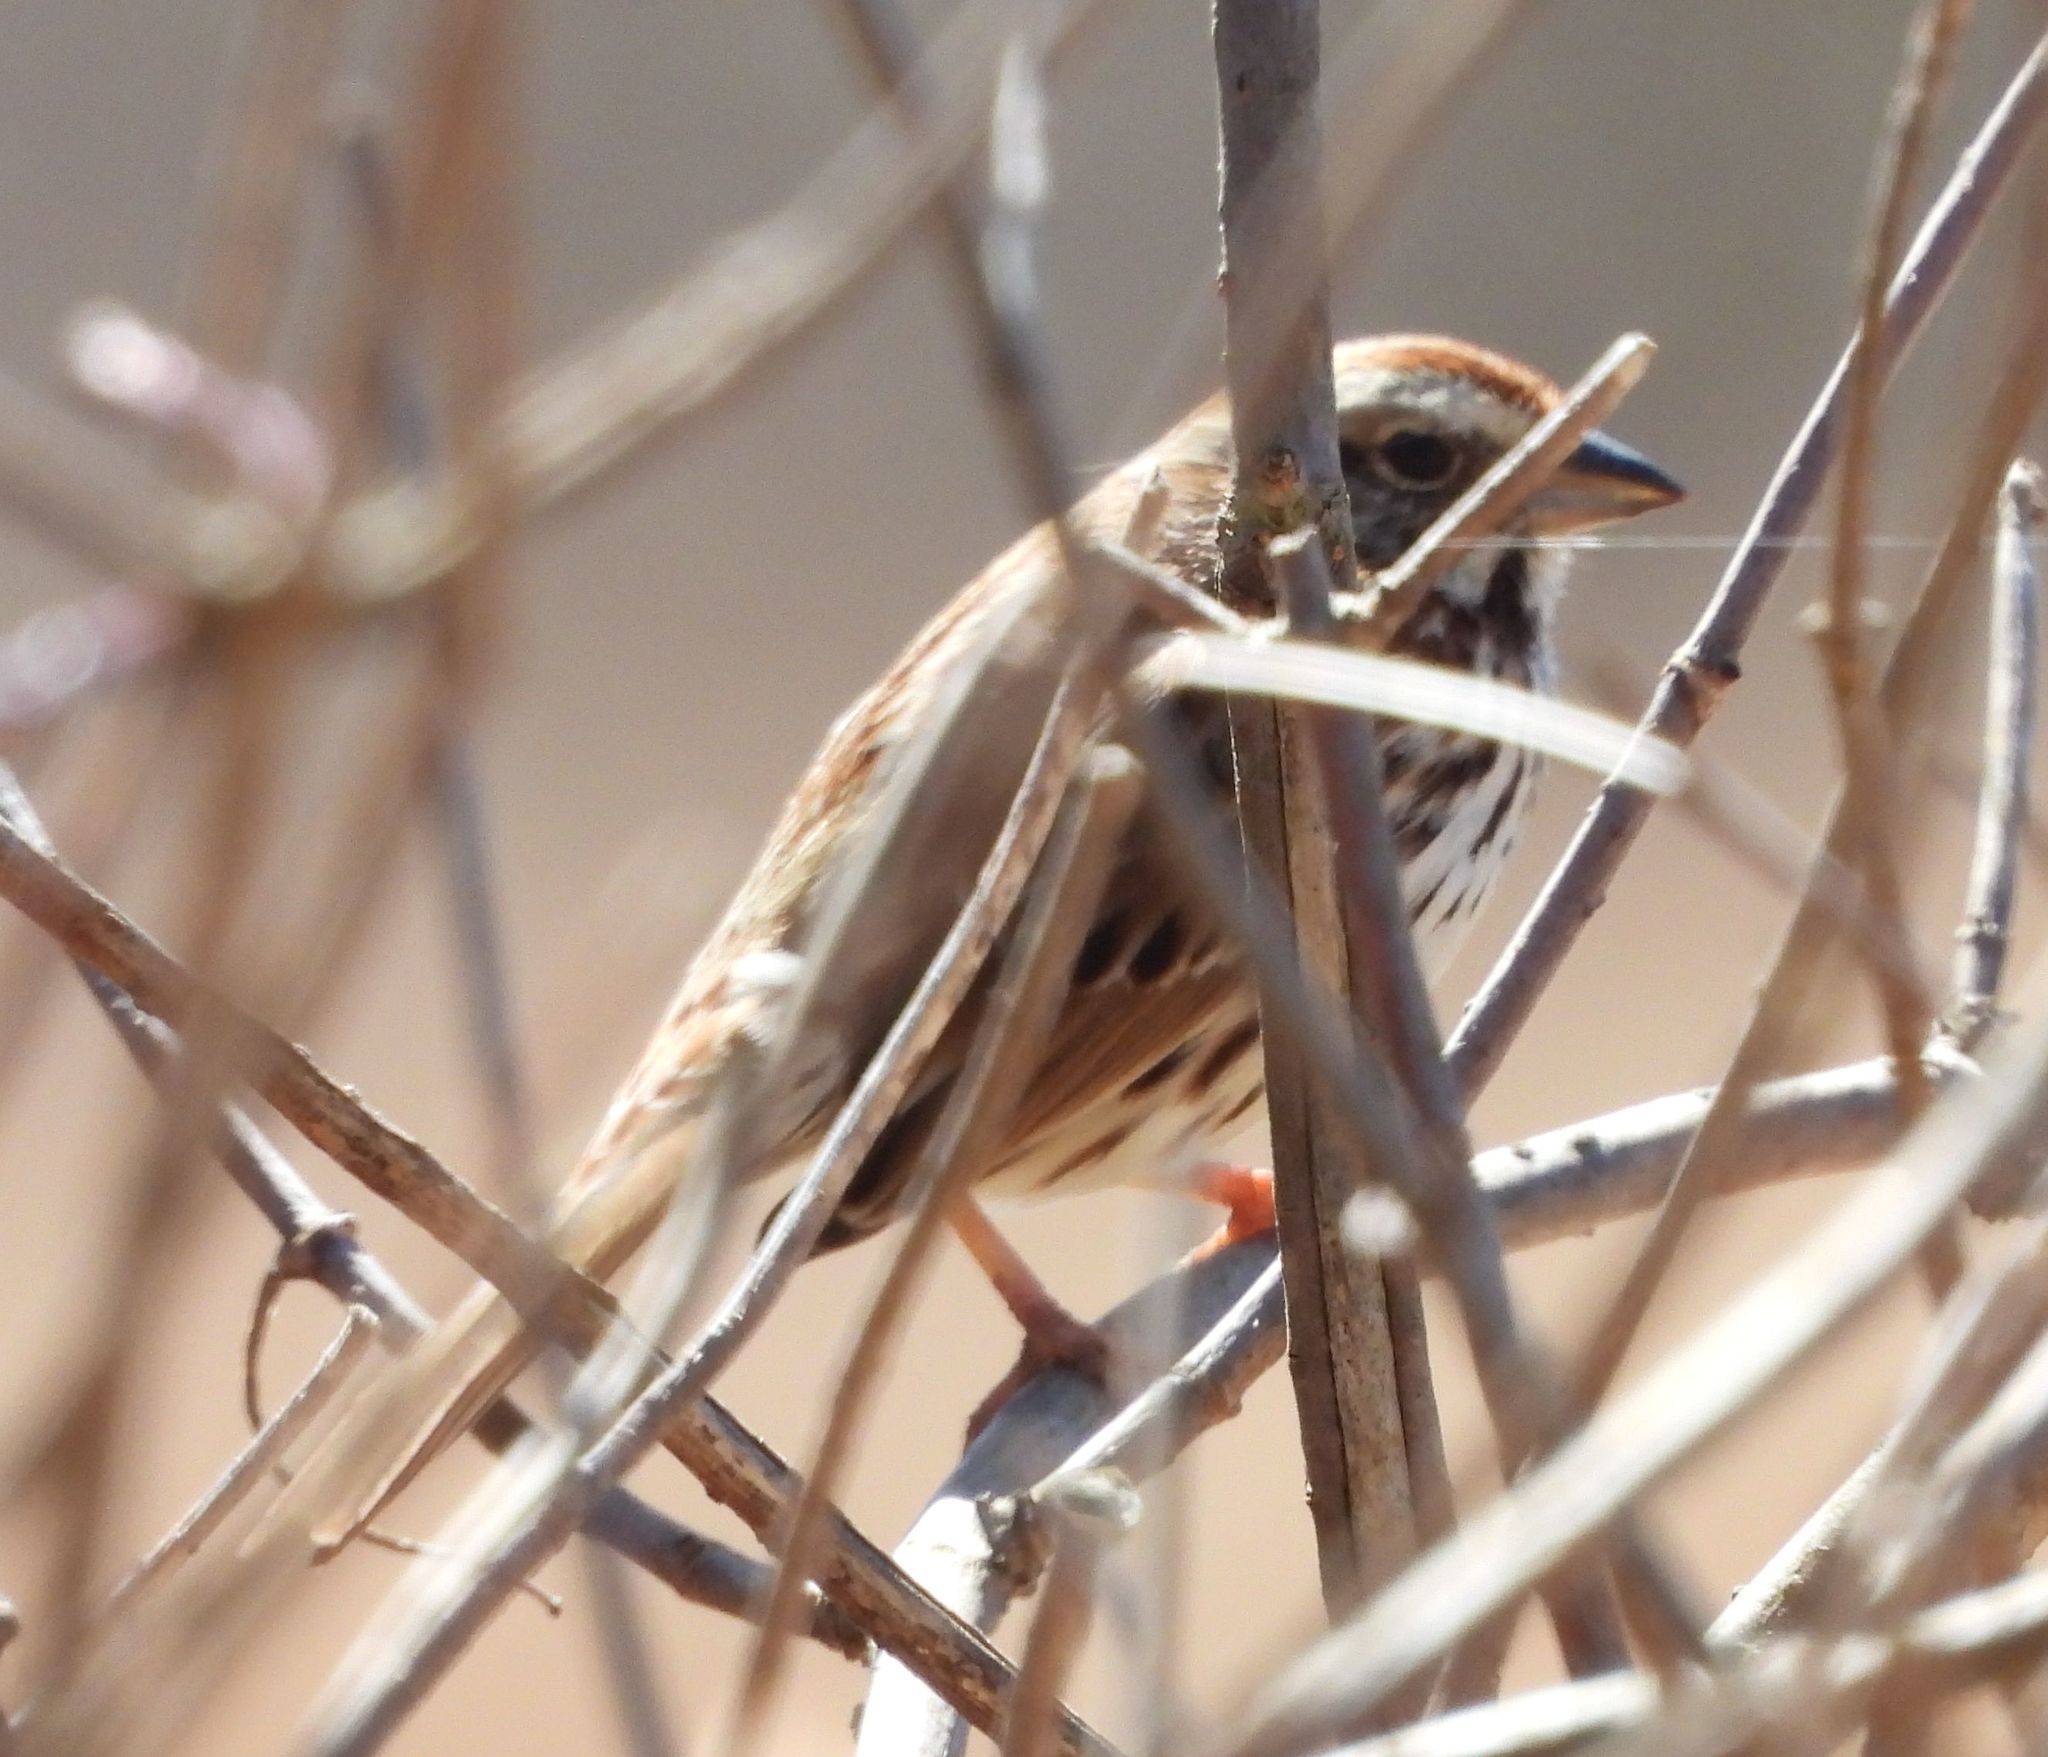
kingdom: Animalia
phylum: Chordata
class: Aves
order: Passeriformes
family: Passerellidae
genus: Melospiza
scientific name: Melospiza melodia
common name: Song sparrow
